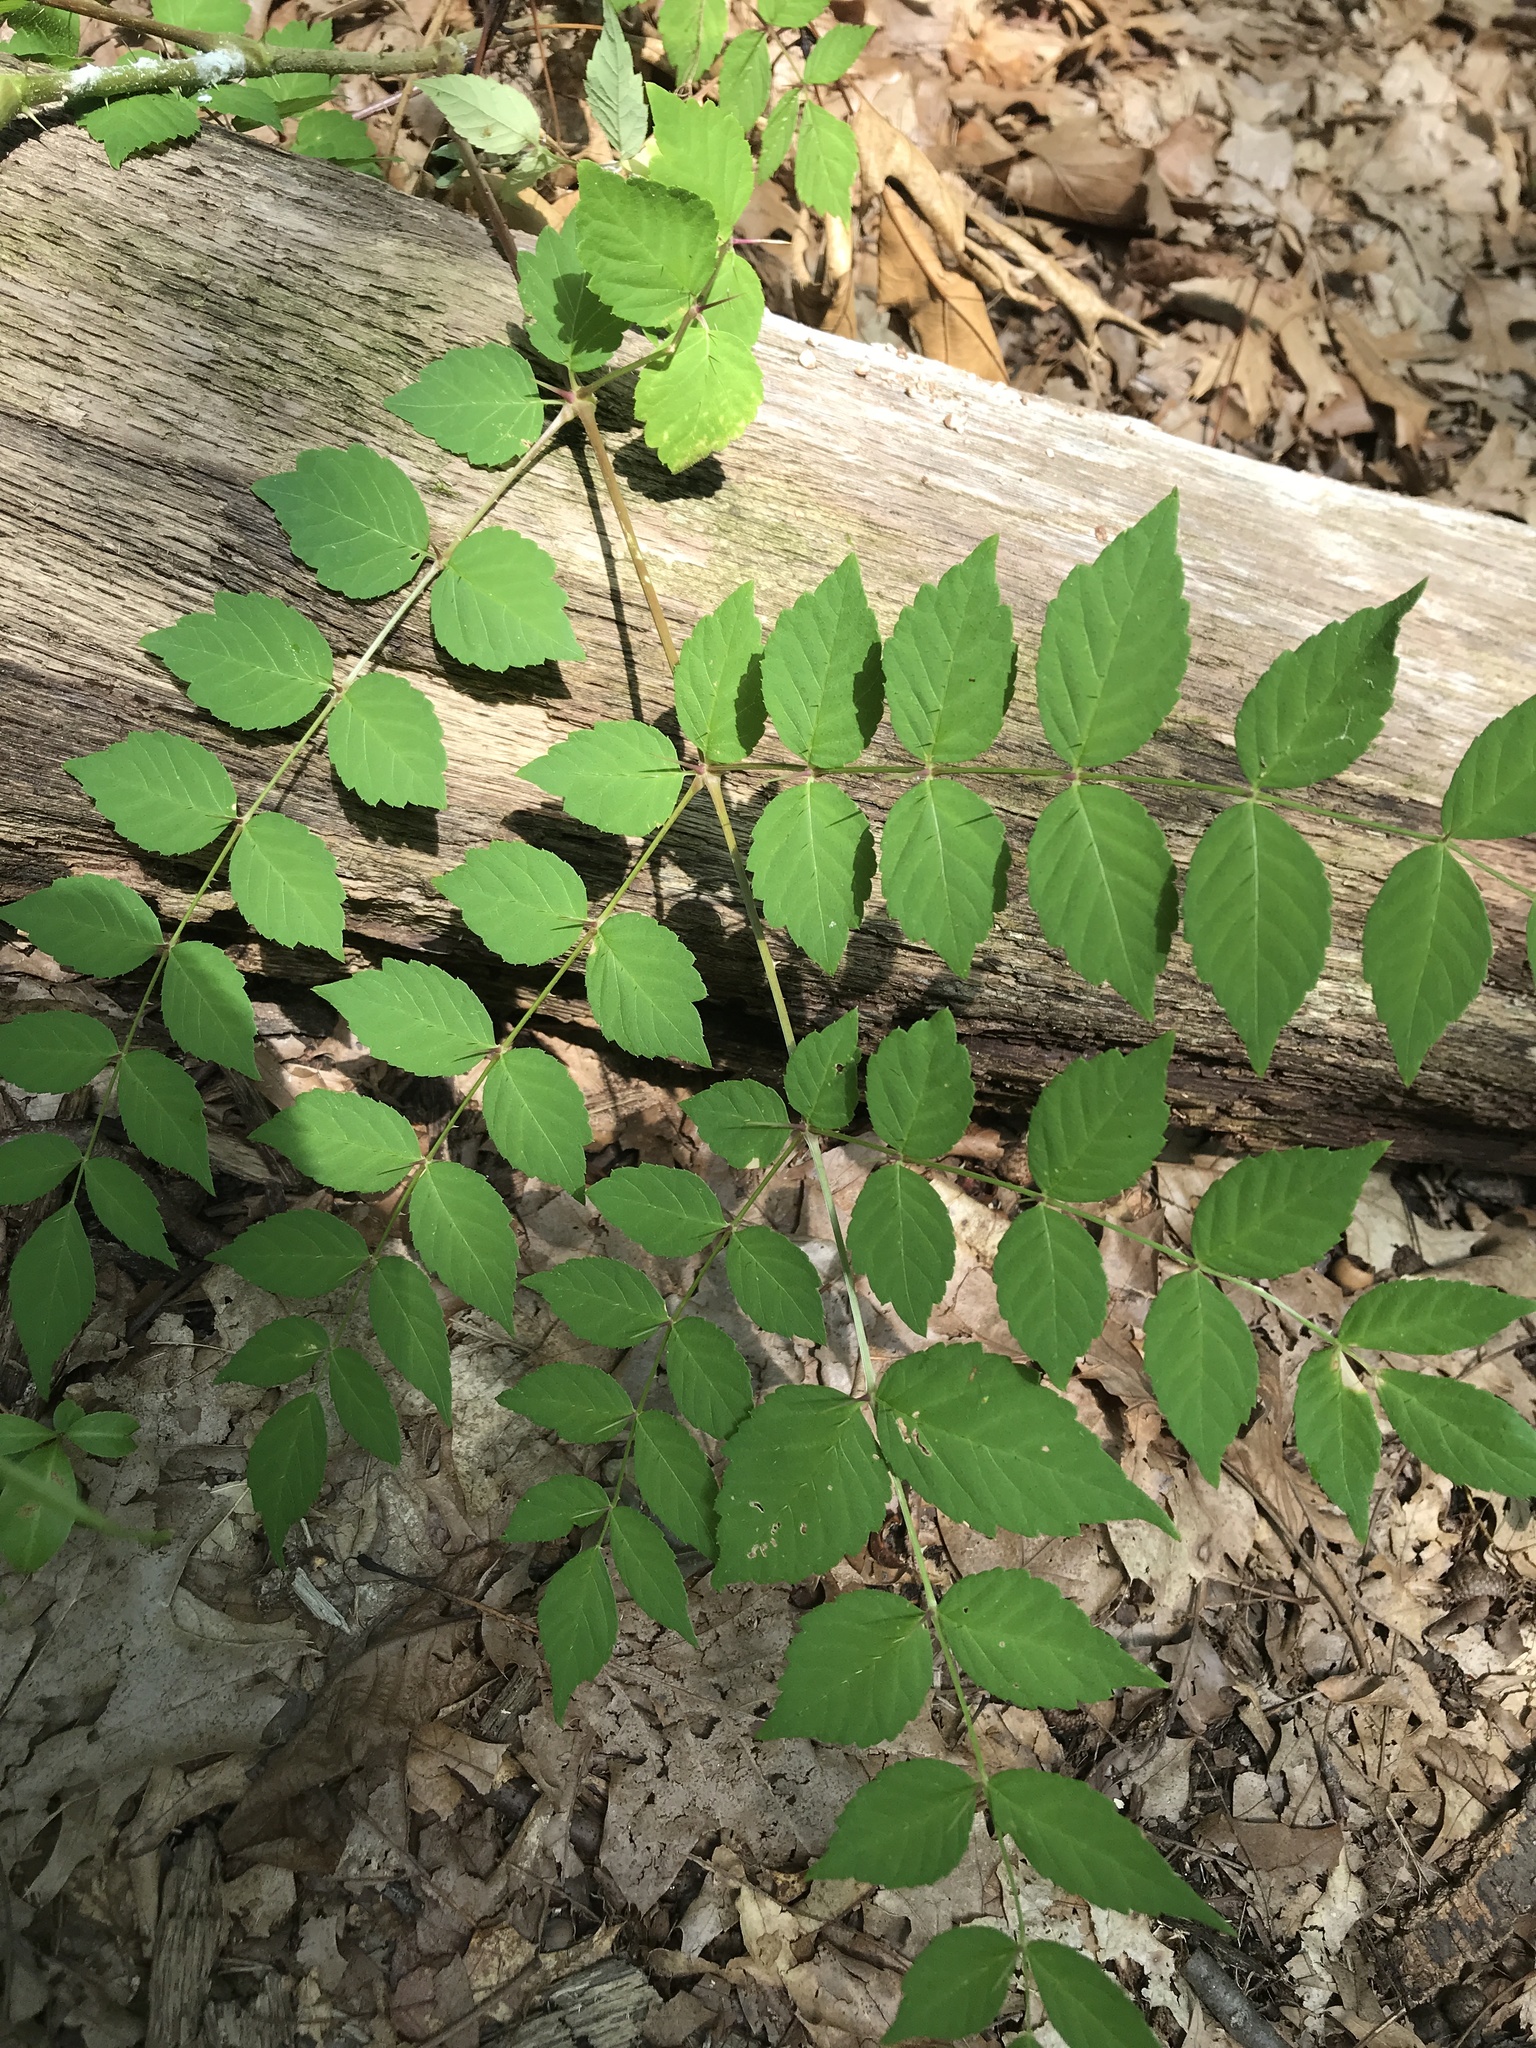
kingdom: Plantae
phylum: Tracheophyta
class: Magnoliopsida
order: Apiales
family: Araliaceae
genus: Aralia
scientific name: Aralia elata
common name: Japanese angelica-tree
